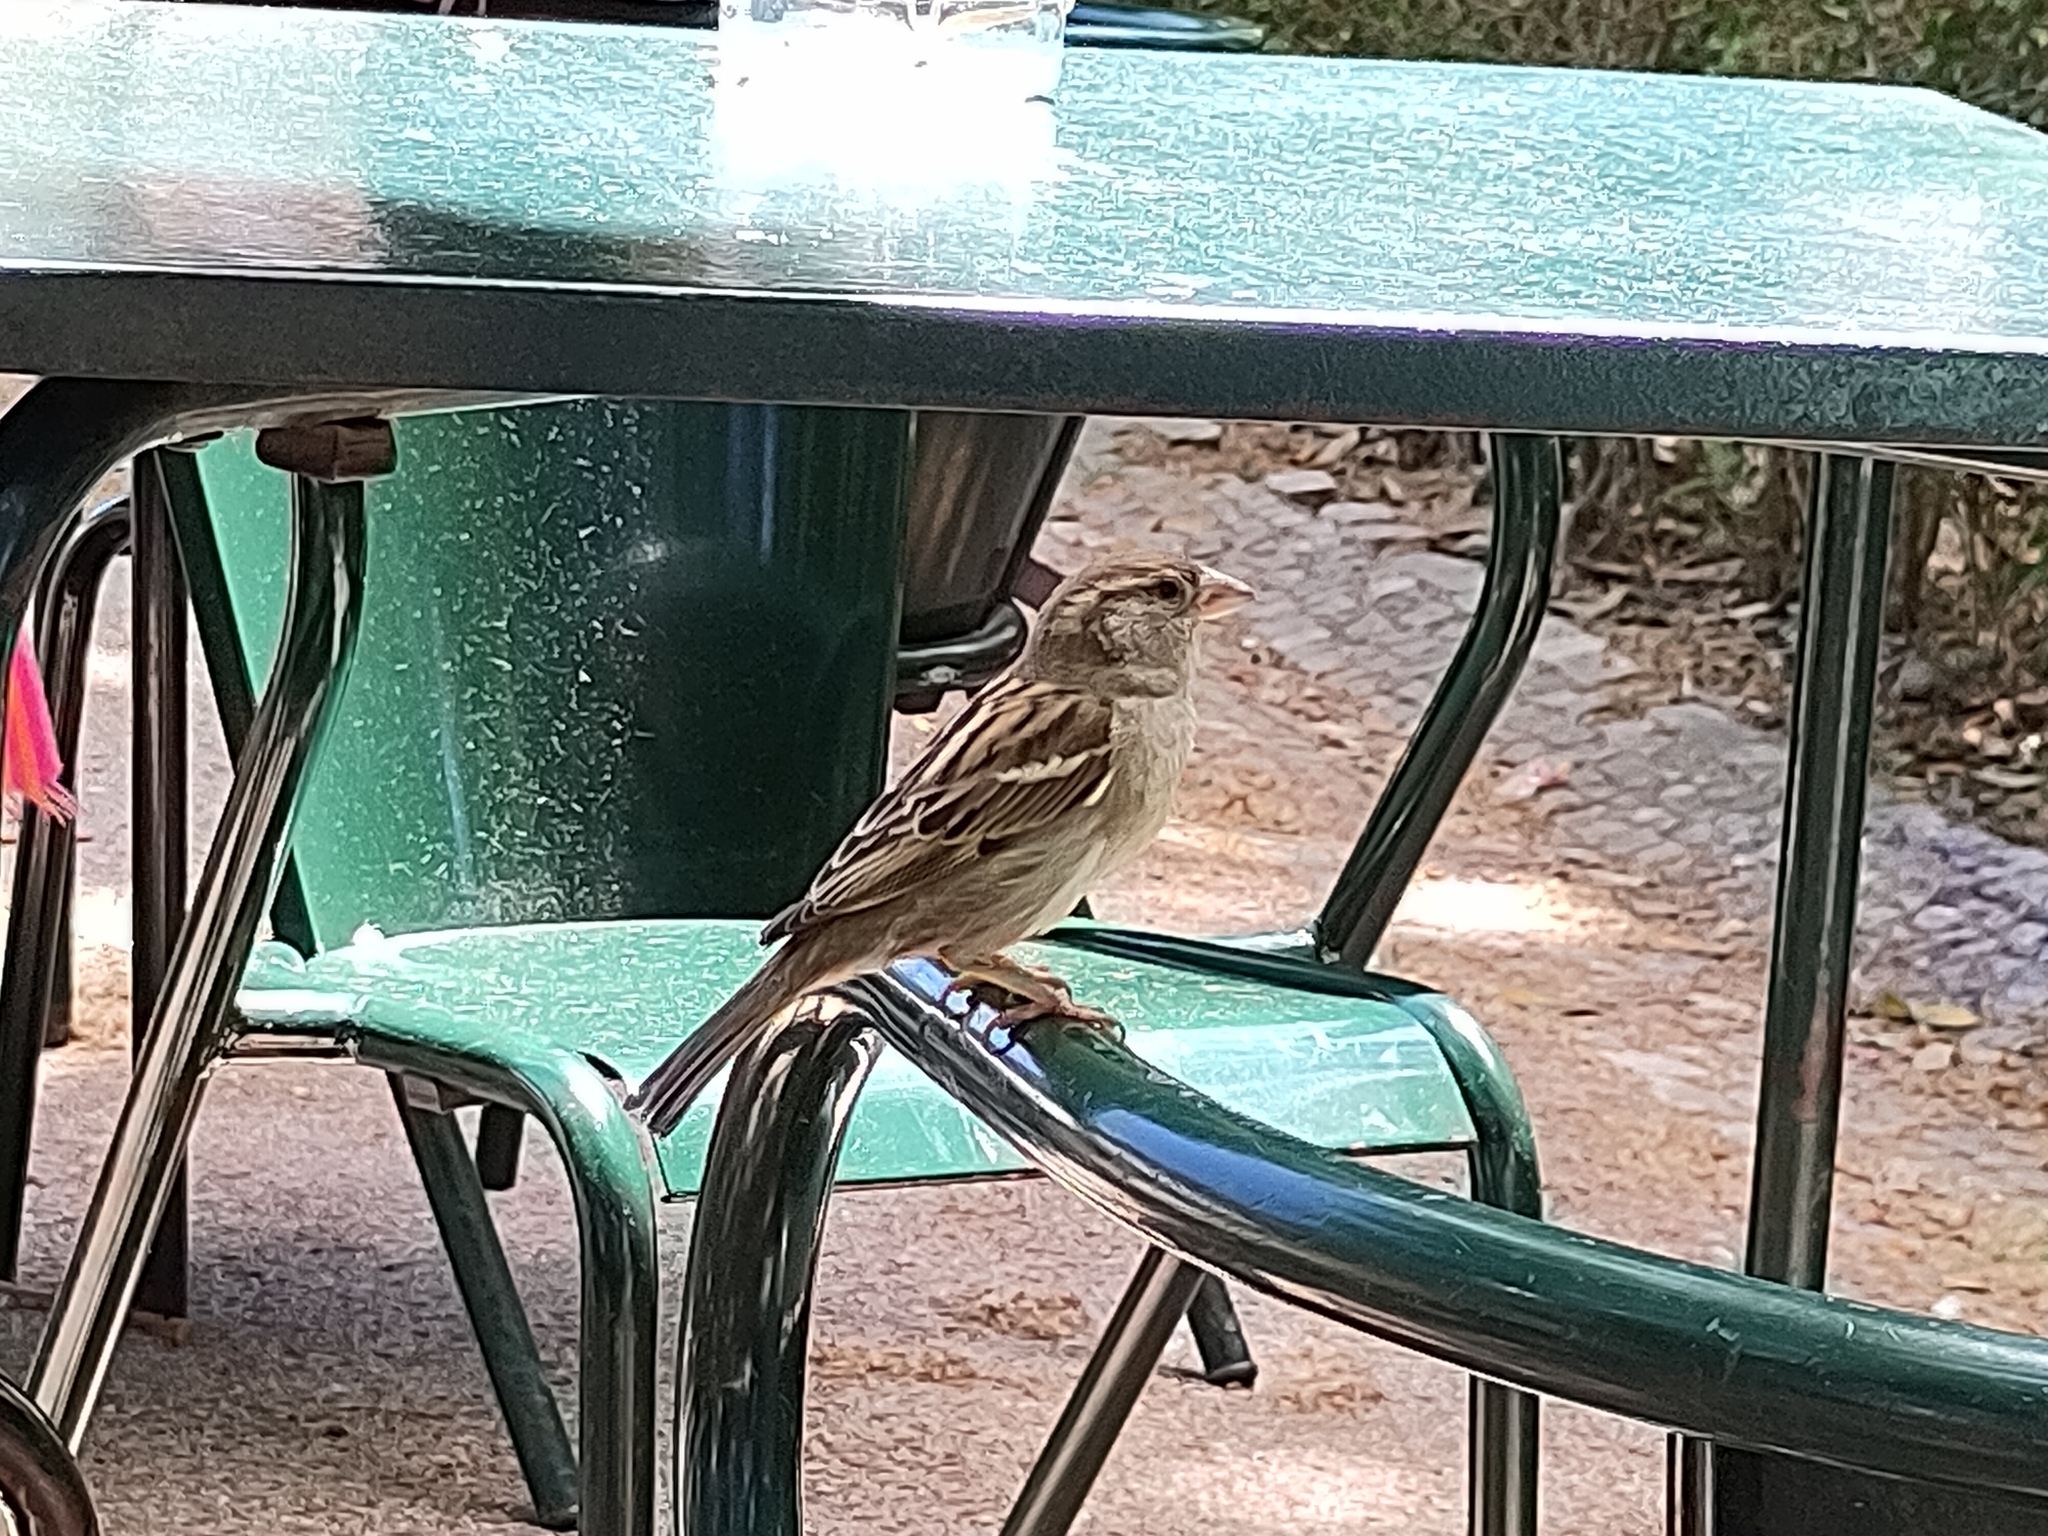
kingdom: Animalia
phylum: Chordata
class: Aves
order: Passeriformes
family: Passeridae
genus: Passer
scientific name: Passer domesticus
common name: House sparrow
